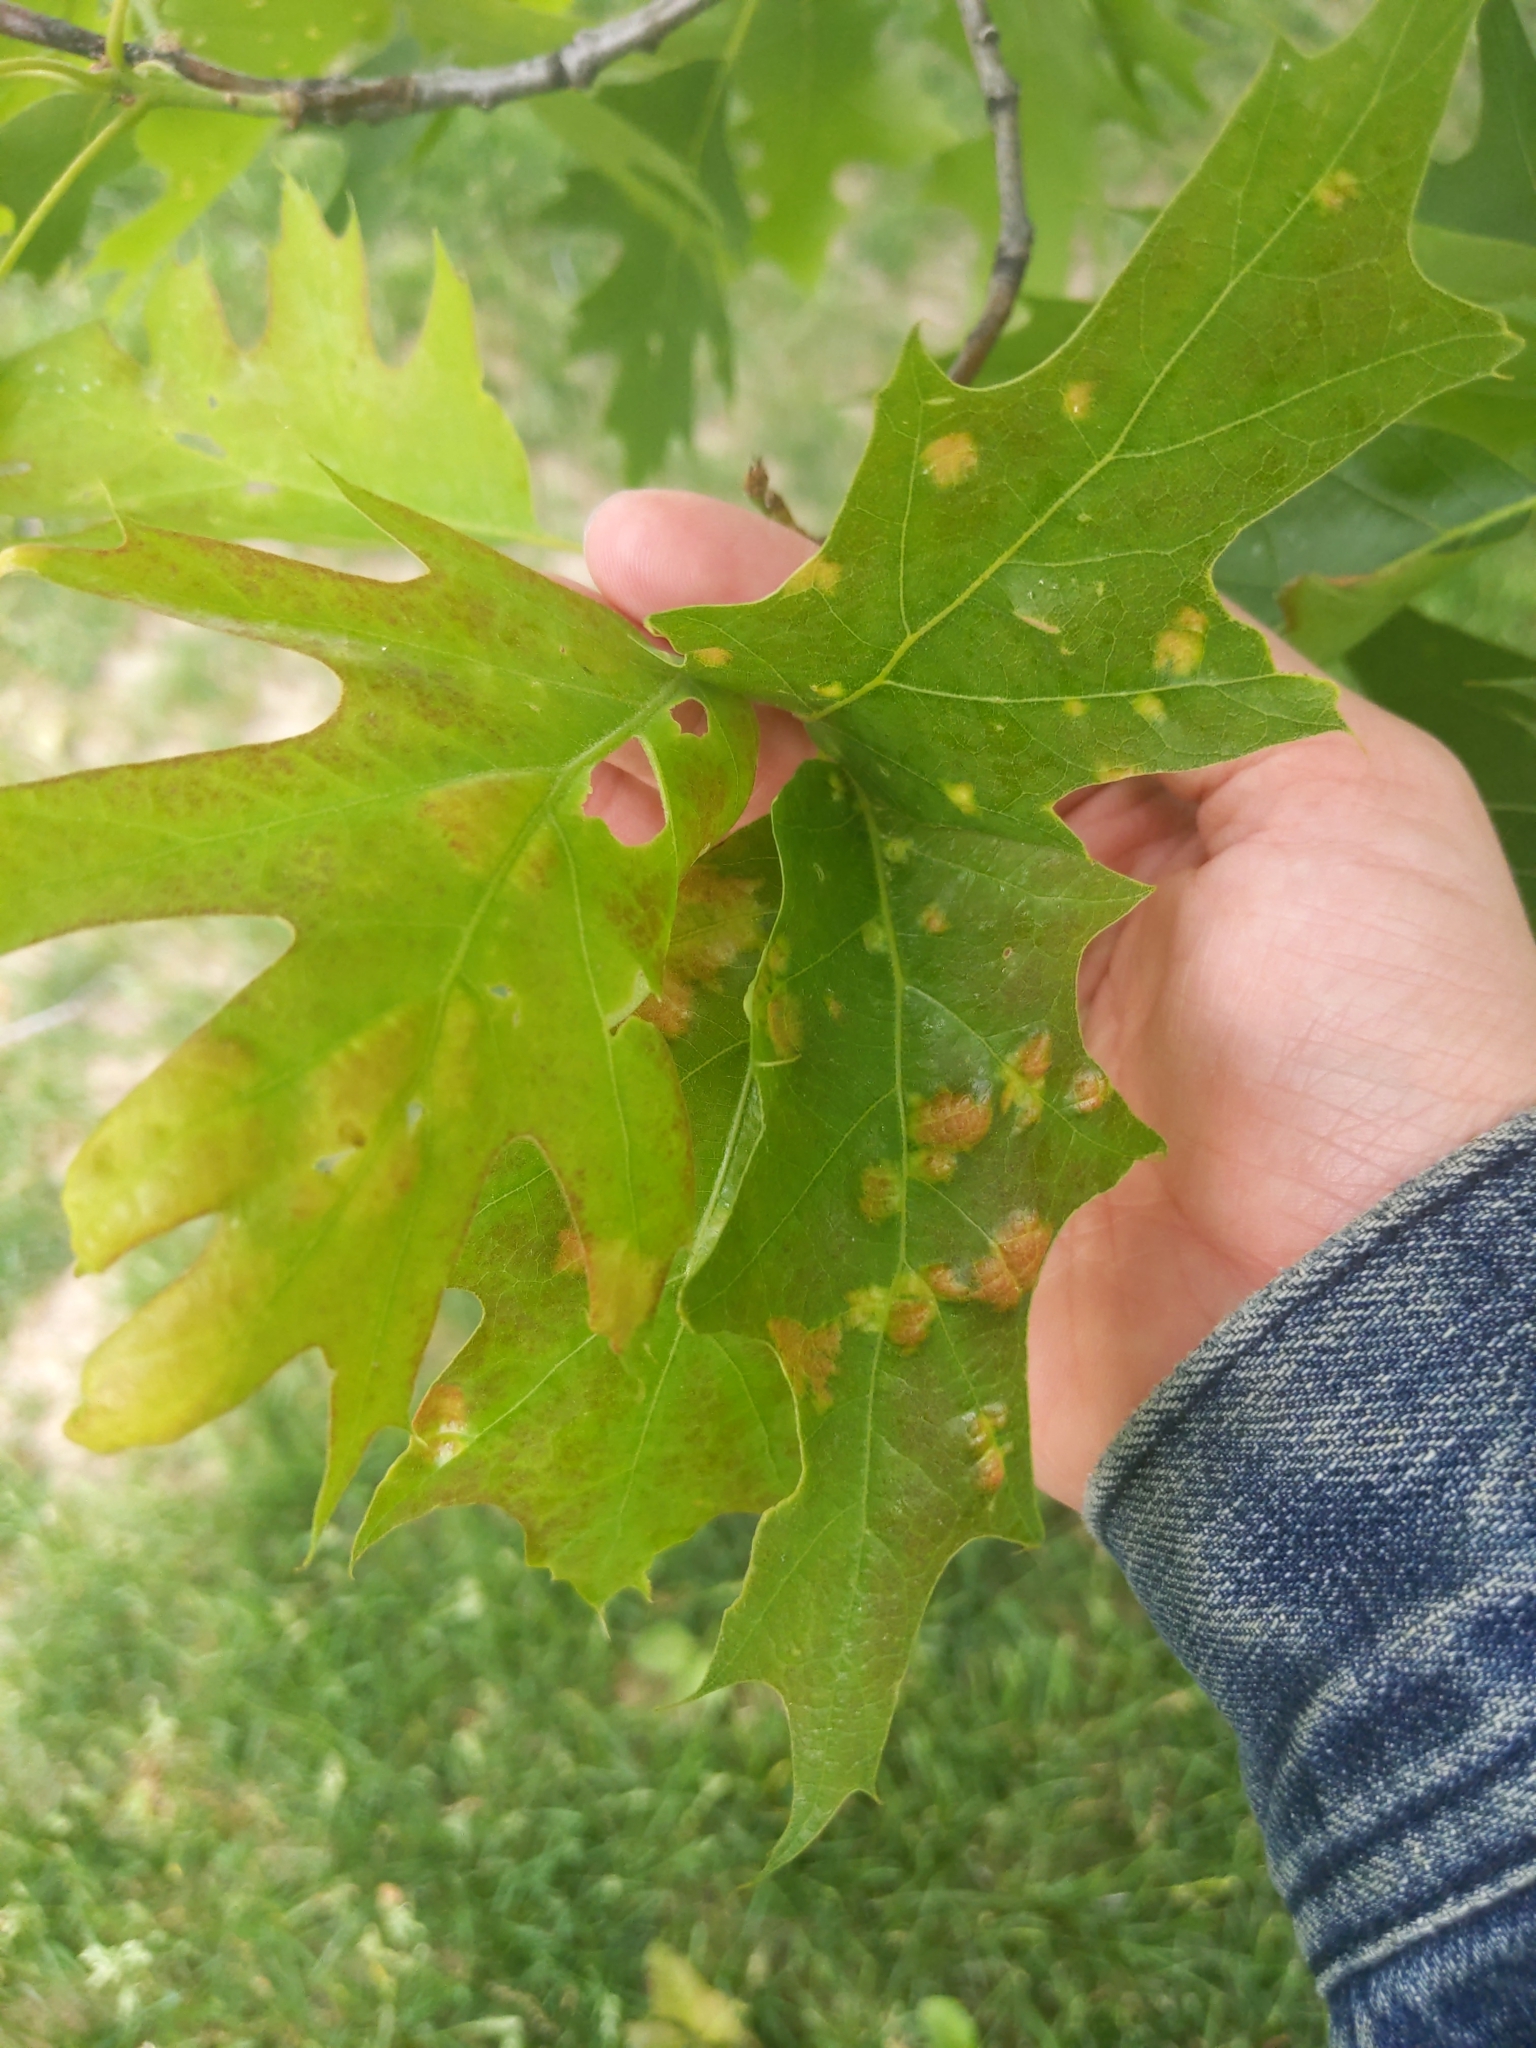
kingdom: Fungi
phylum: Ascomycota
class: Taphrinomycetes
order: Taphrinales
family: Taphrinaceae
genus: Taphrina
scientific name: Taphrina caerulescens
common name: Oak leaf blister
